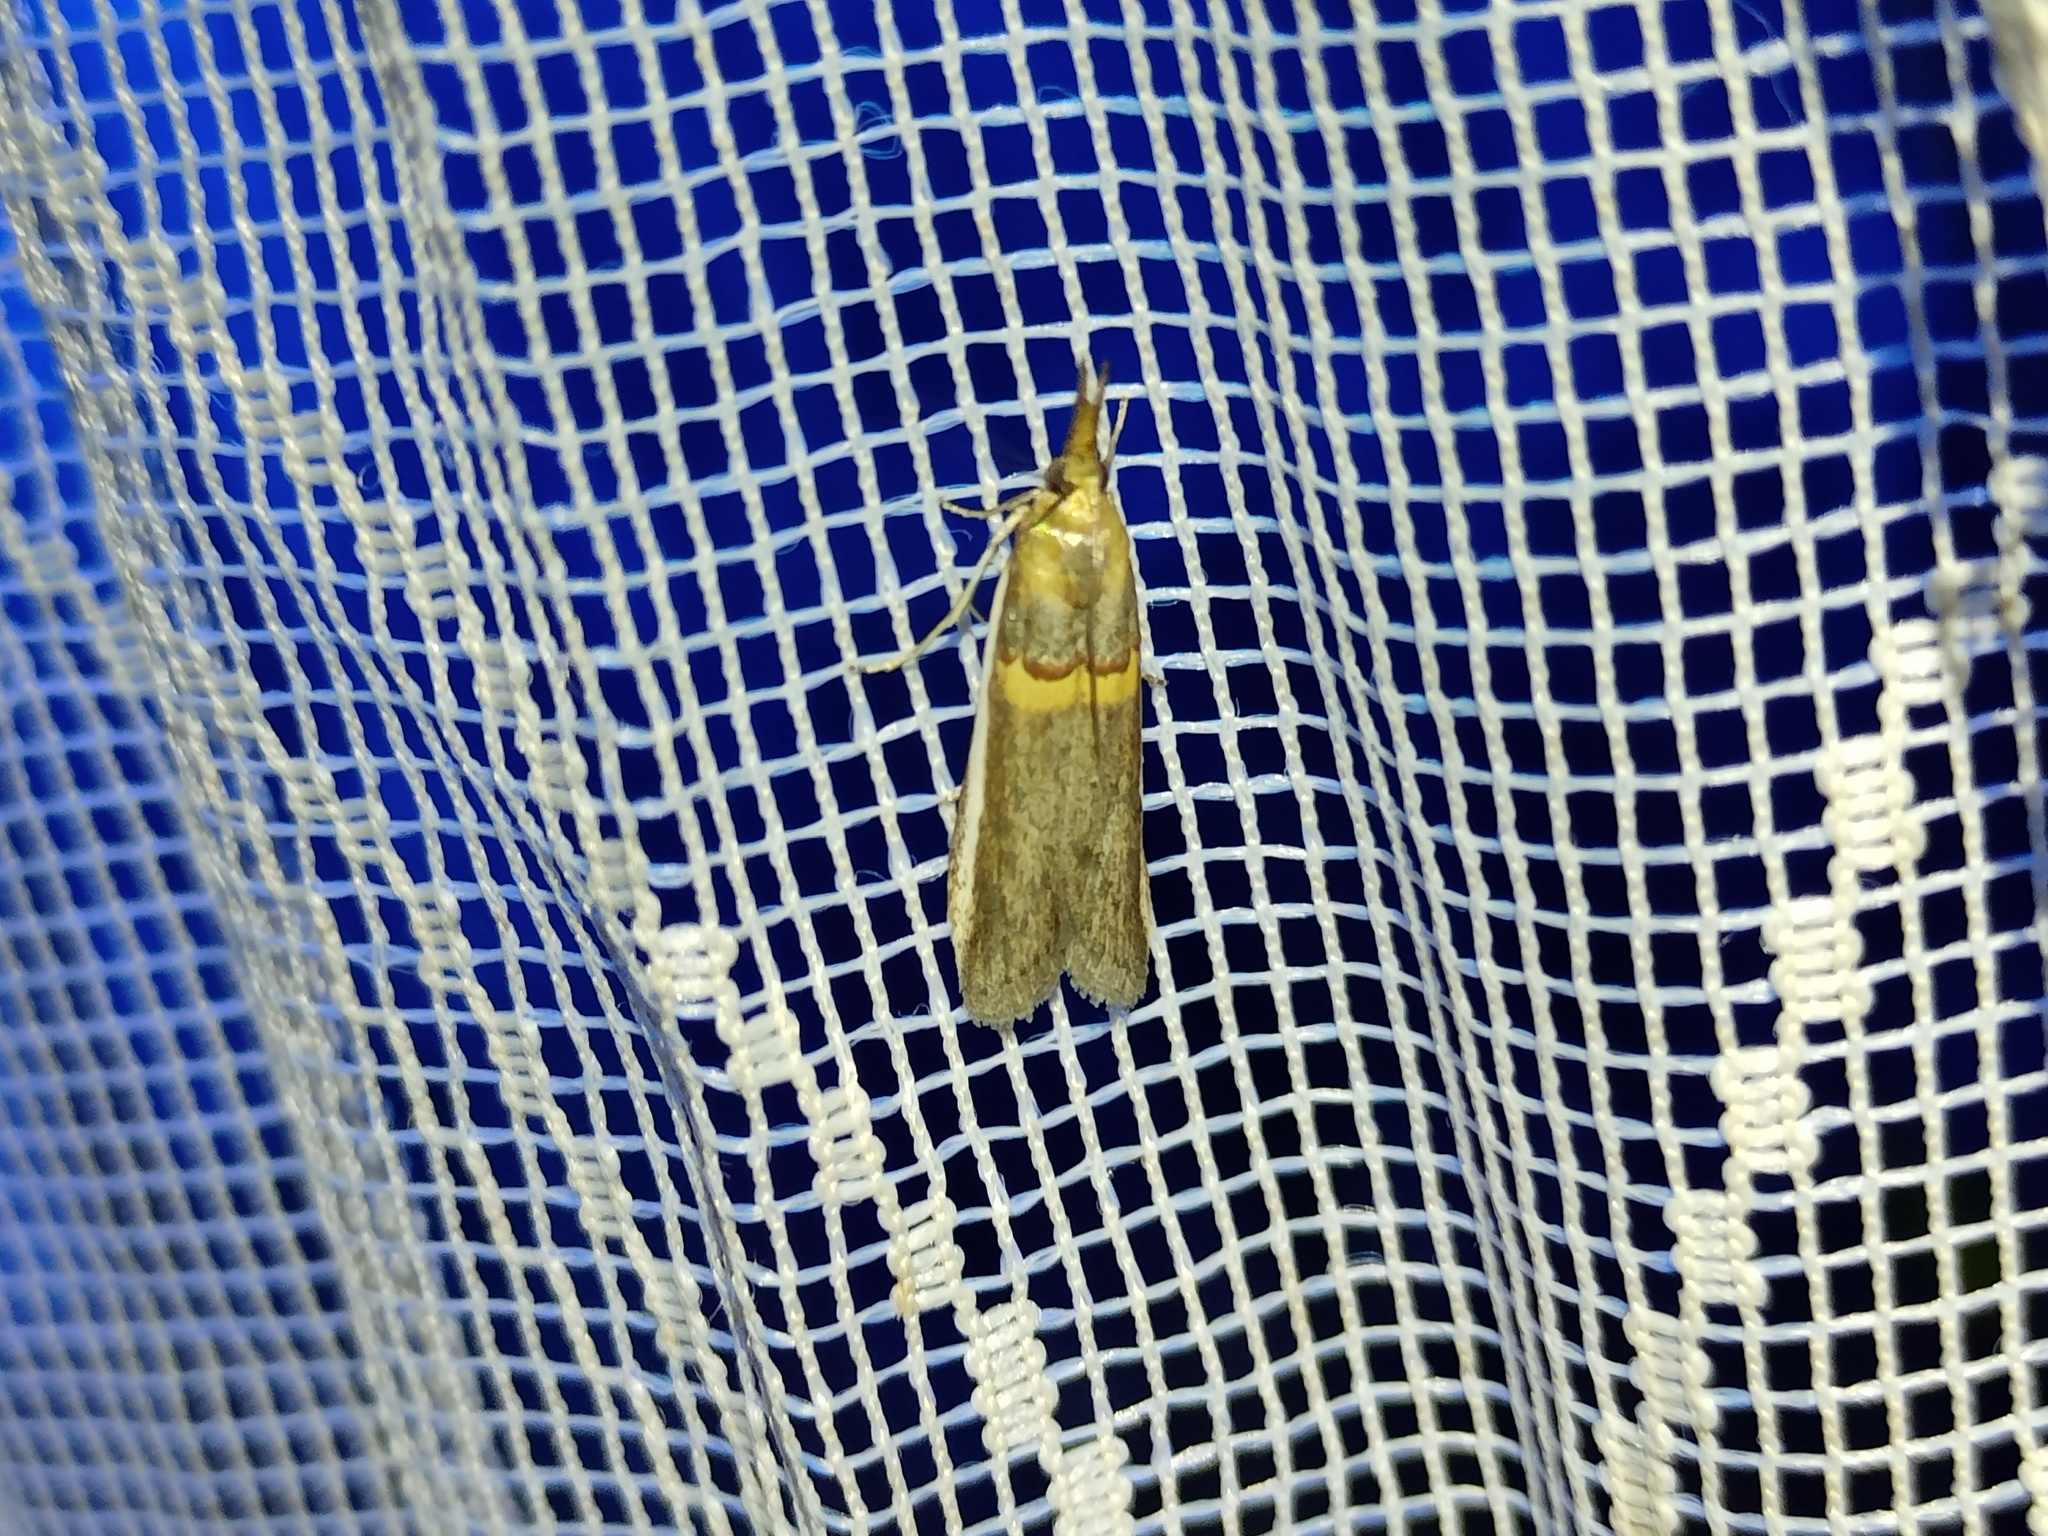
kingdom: Animalia
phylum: Arthropoda
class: Insecta
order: Lepidoptera
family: Pyralidae
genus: Etiella
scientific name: Etiella zinckenella
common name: Gold-banded etiella moth
